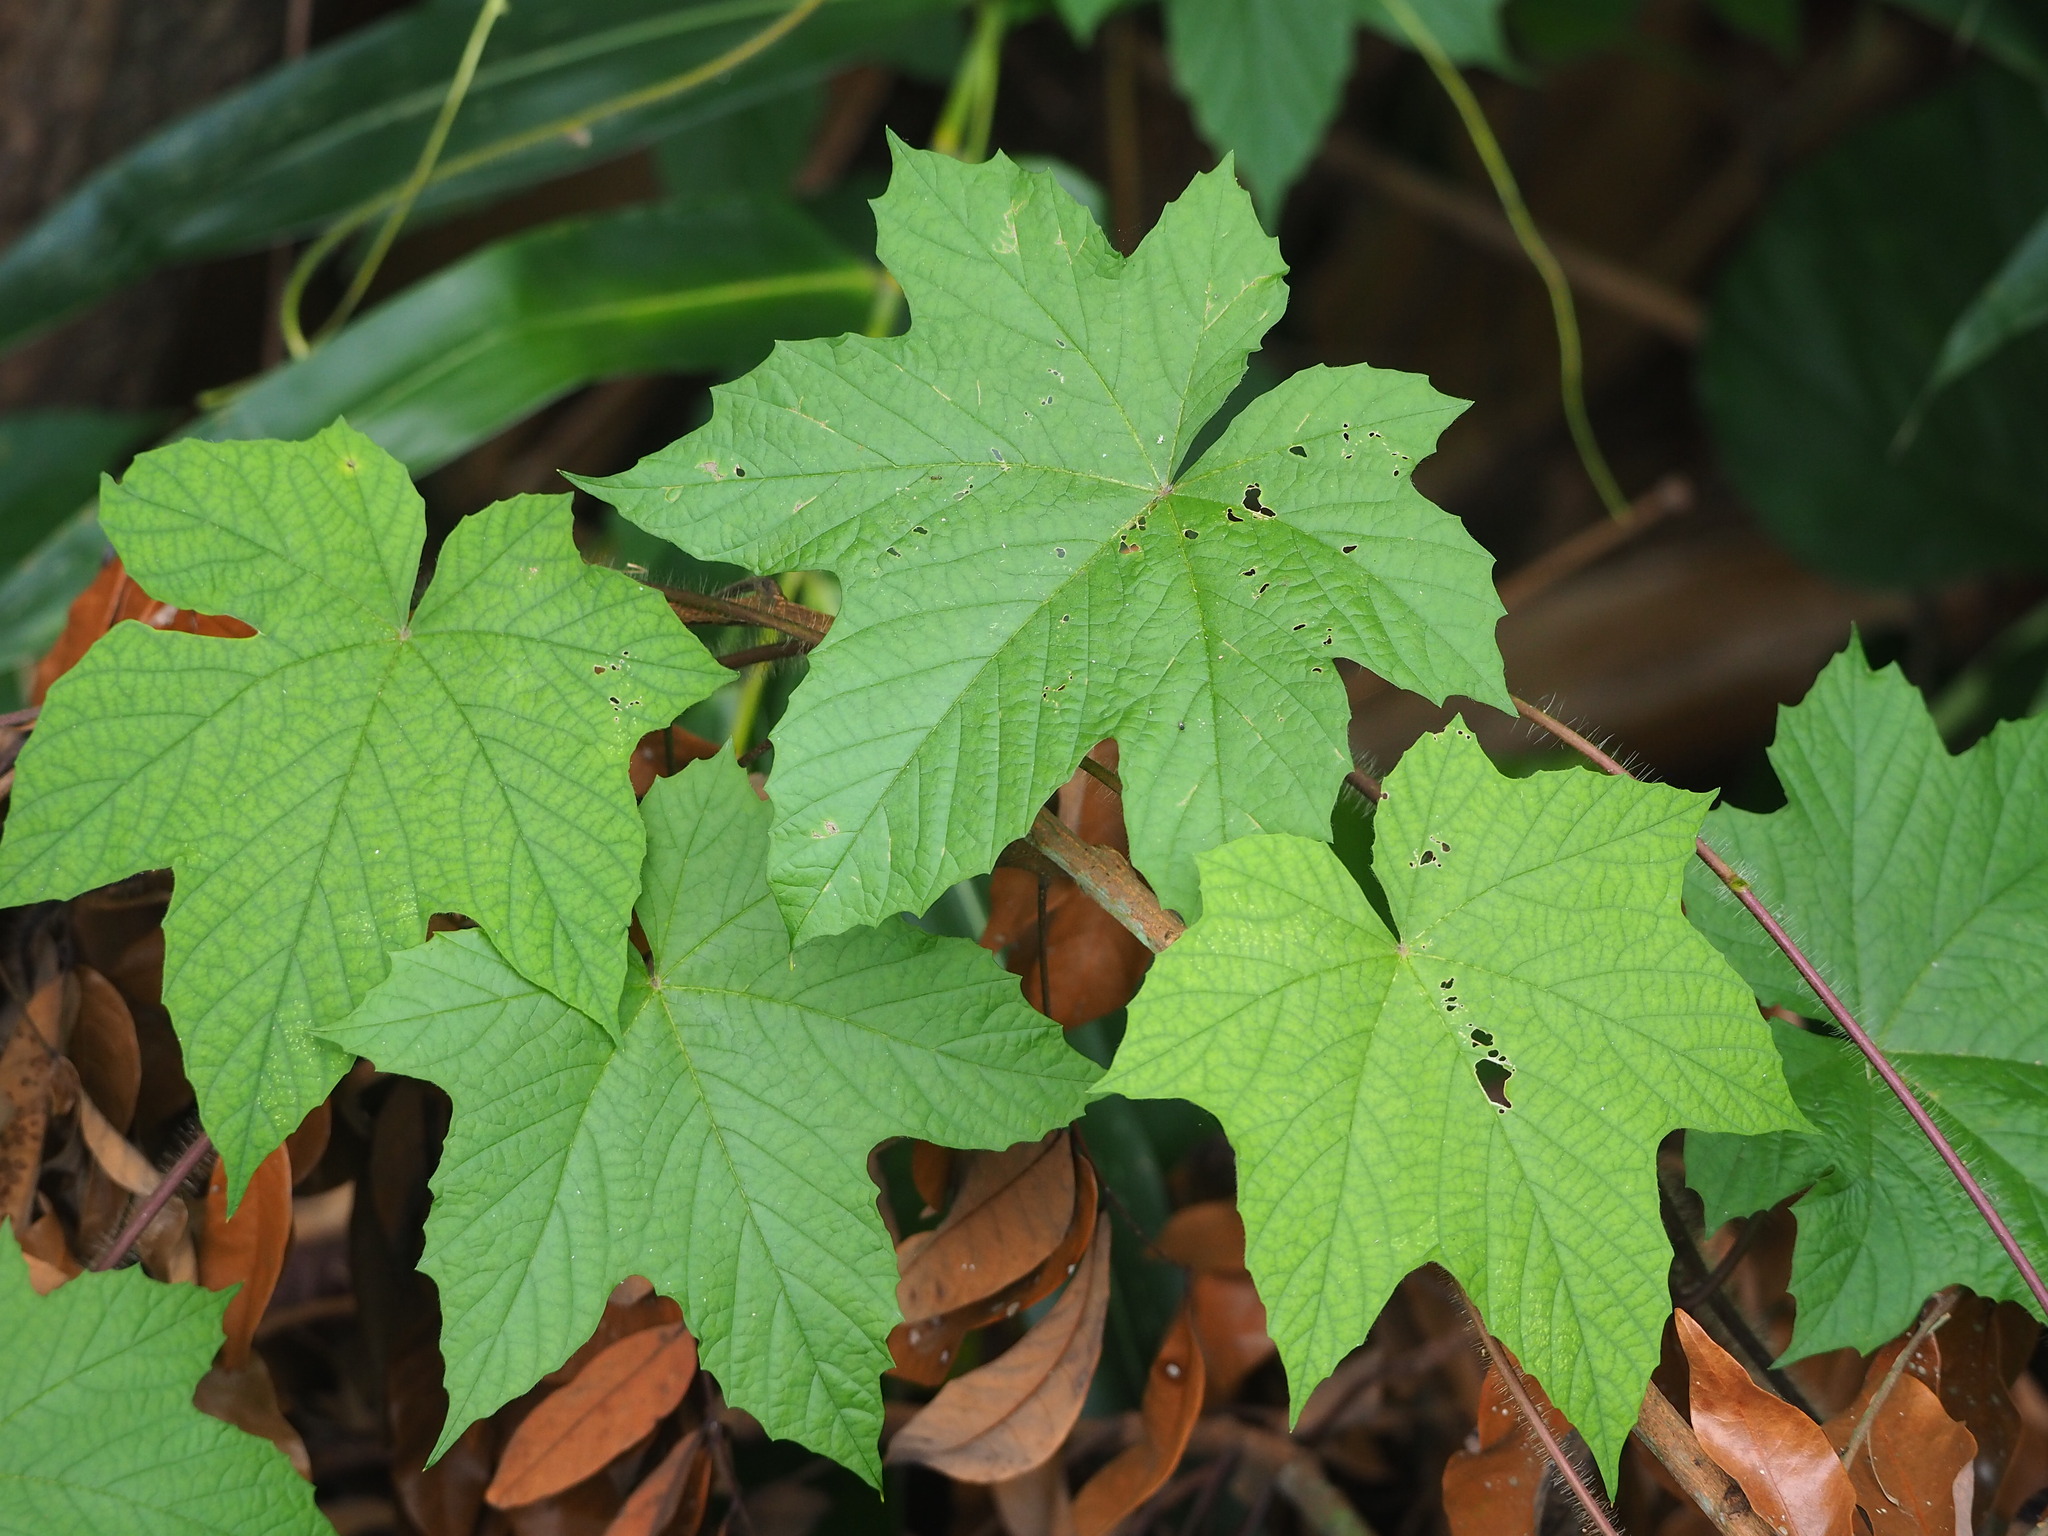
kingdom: Plantae
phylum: Tracheophyta
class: Magnoliopsida
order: Solanales
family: Convolvulaceae
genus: Distimake
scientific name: Distimake
